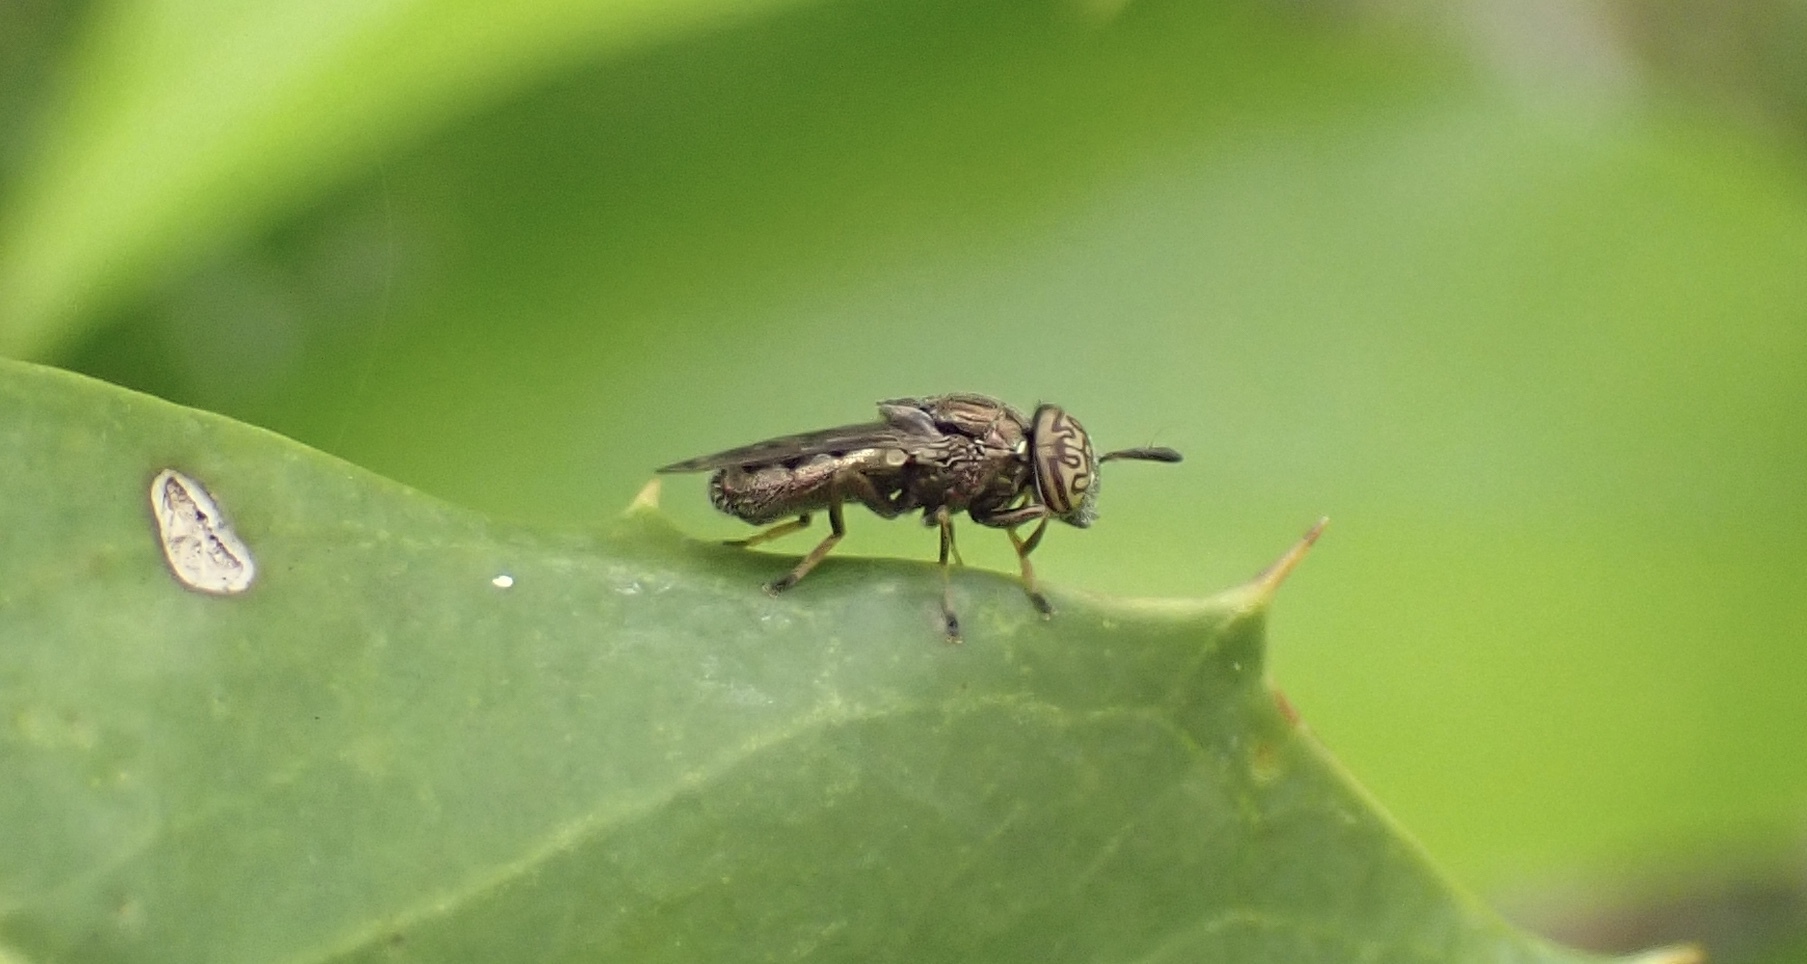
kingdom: Animalia
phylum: Arthropoda
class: Insecta
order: Diptera
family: Syrphidae
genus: Orthonevra
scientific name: Orthonevra nitida
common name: Wavy mucksucker
